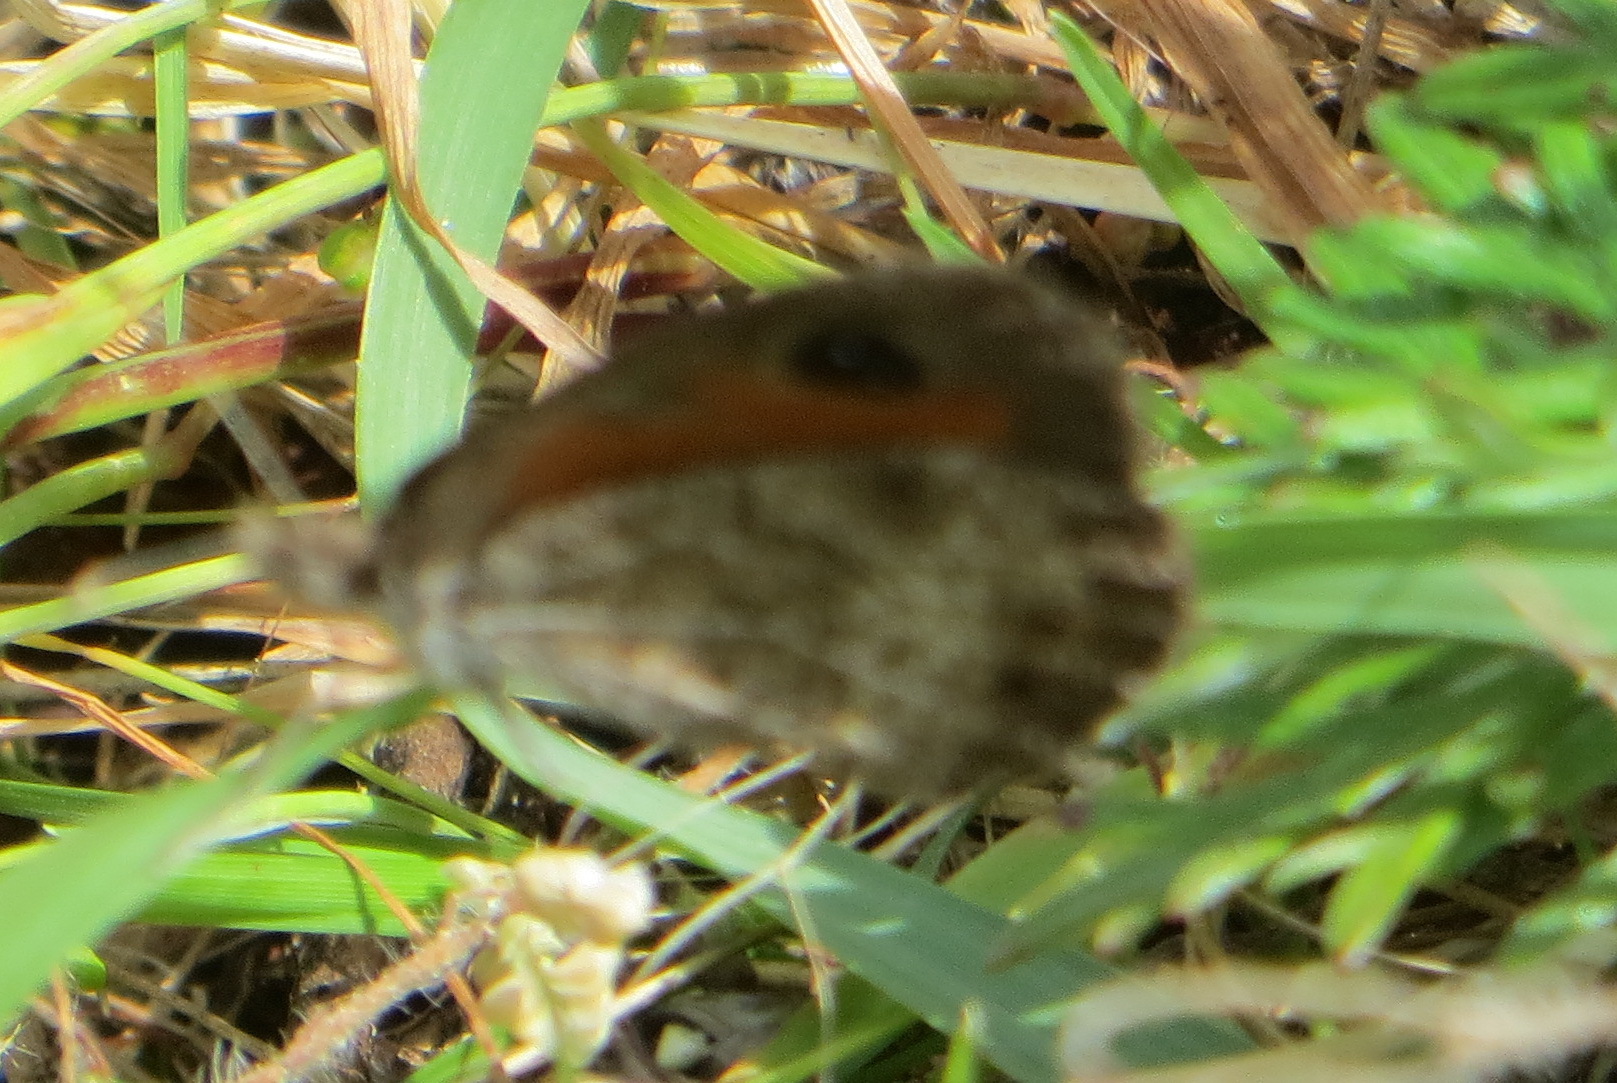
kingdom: Animalia
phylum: Arthropoda
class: Insecta
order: Lepidoptera
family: Nymphalidae
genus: Pseudonympha
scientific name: Pseudonympha magus
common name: Silver-bottom brown
